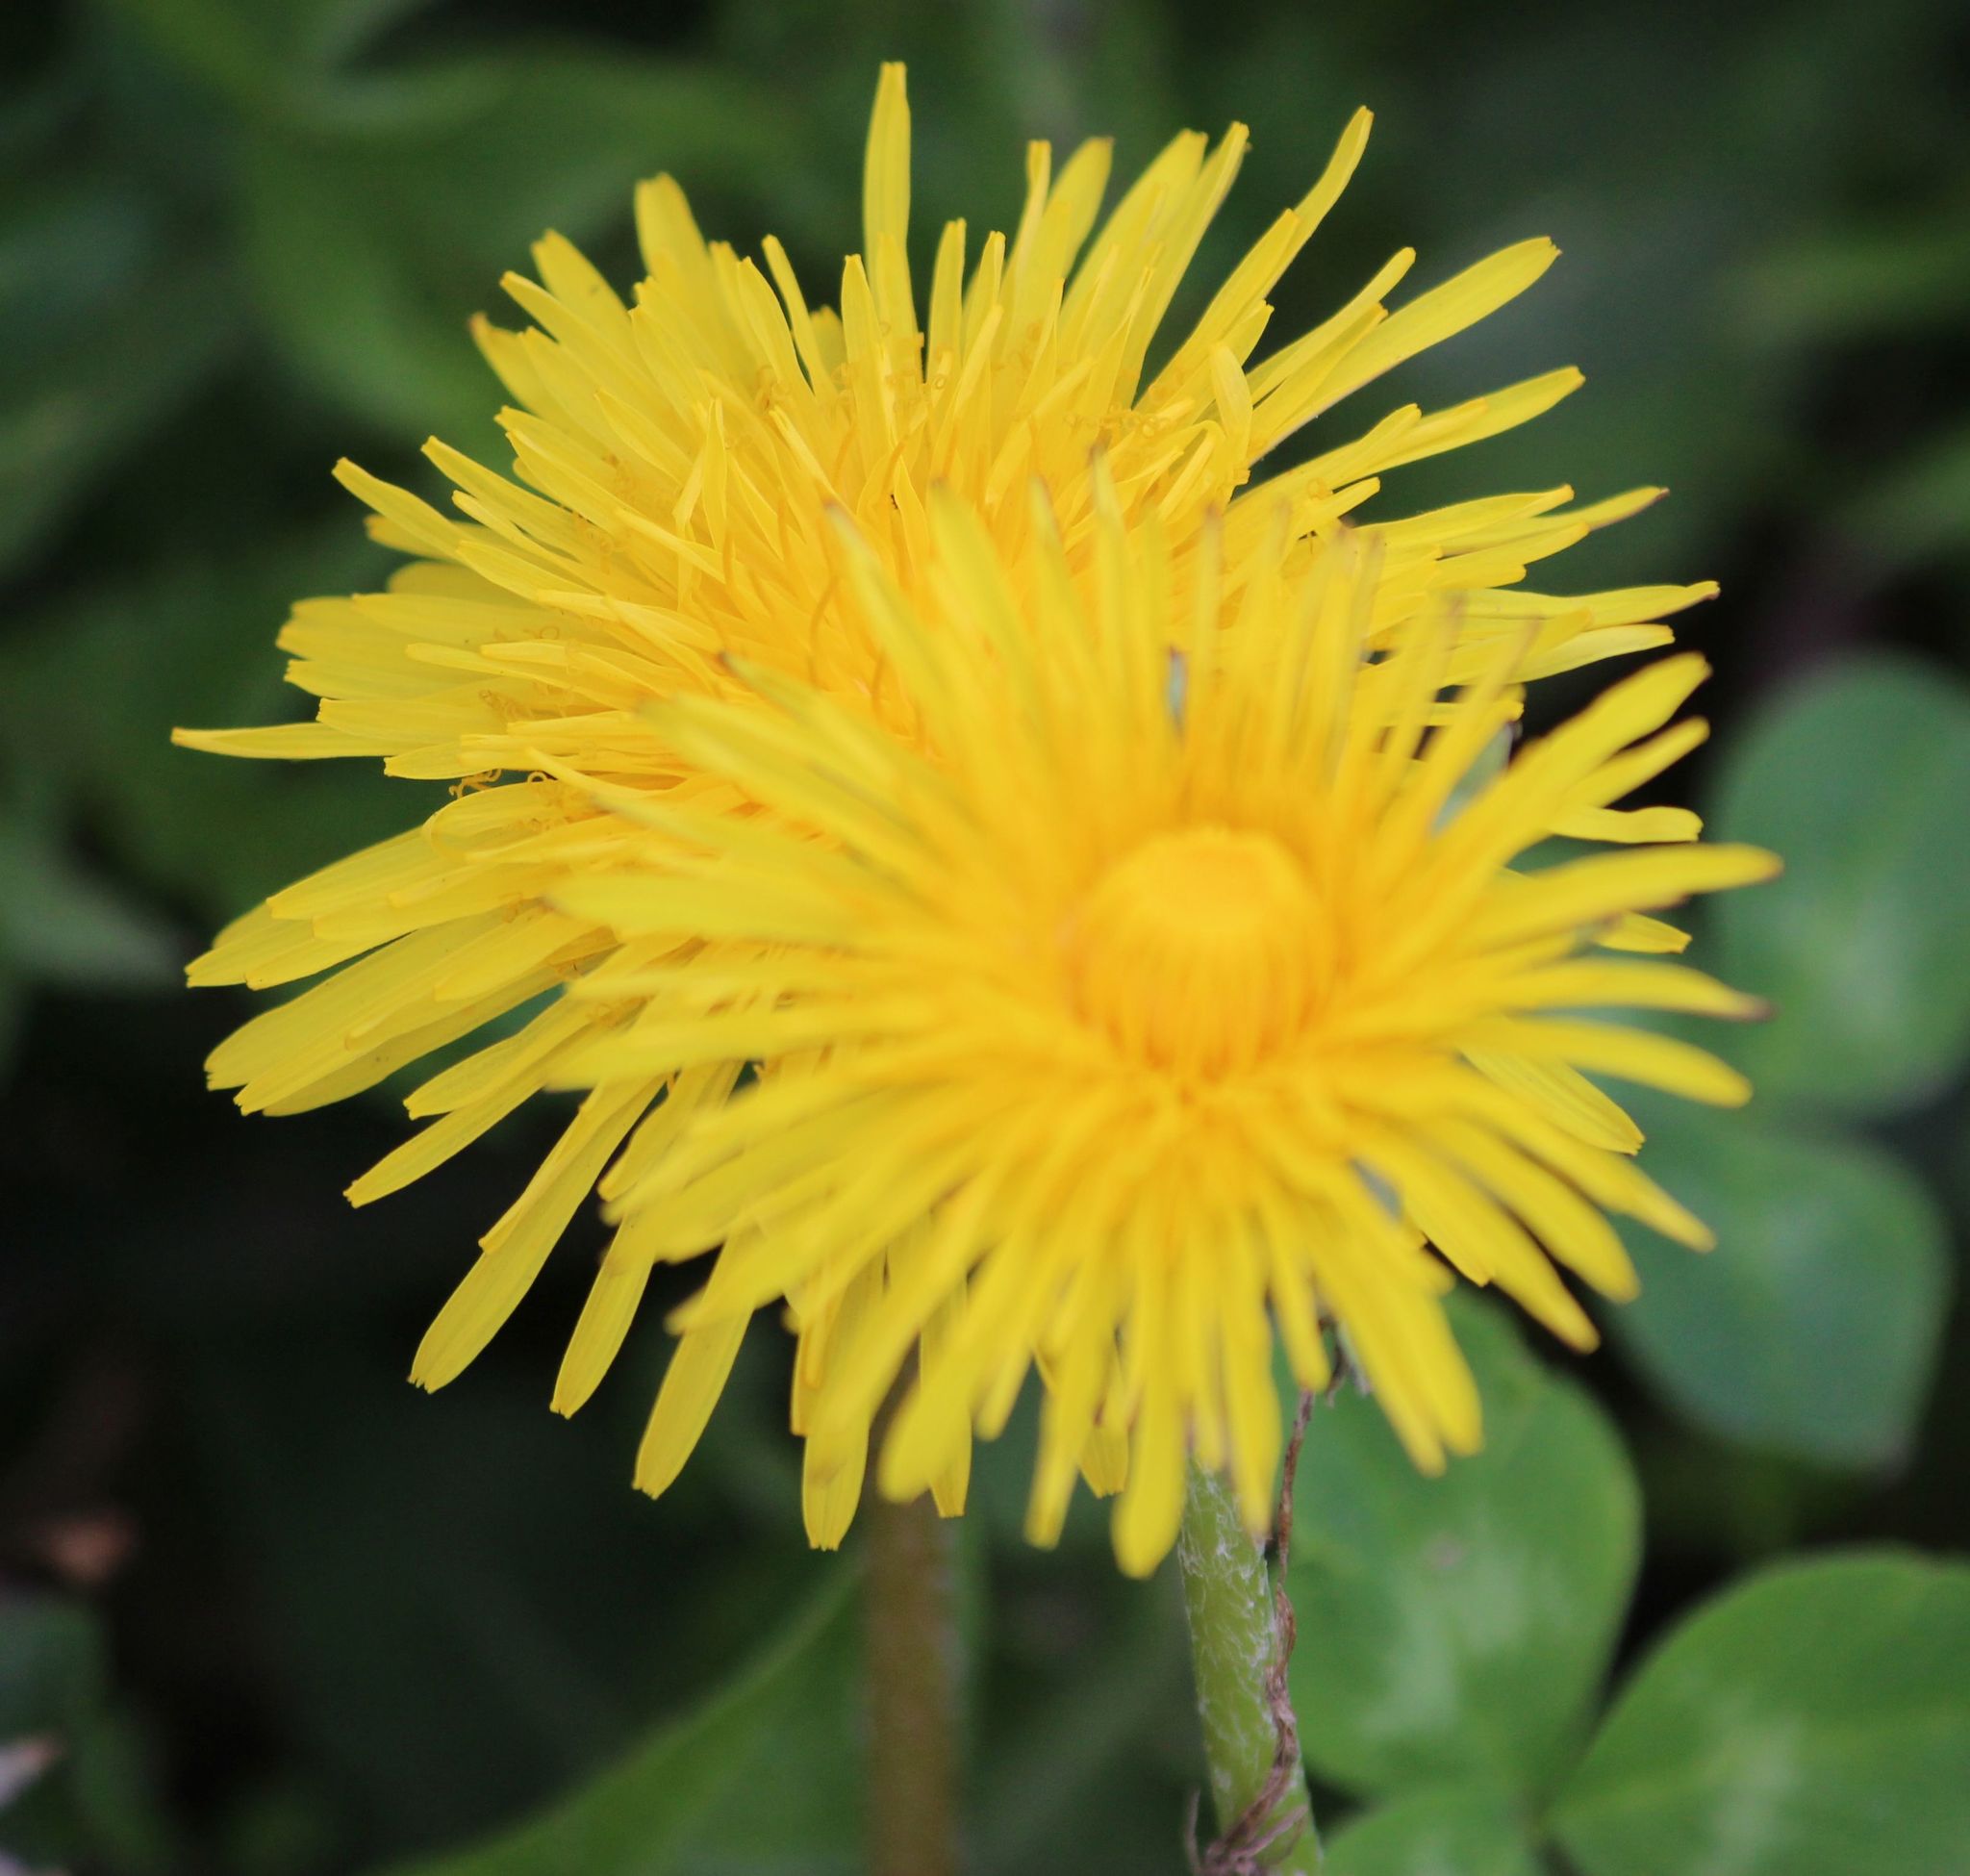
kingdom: Plantae
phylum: Tracheophyta
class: Magnoliopsida
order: Asterales
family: Asteraceae
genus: Taraxacum
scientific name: Taraxacum officinale
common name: Common dandelion
